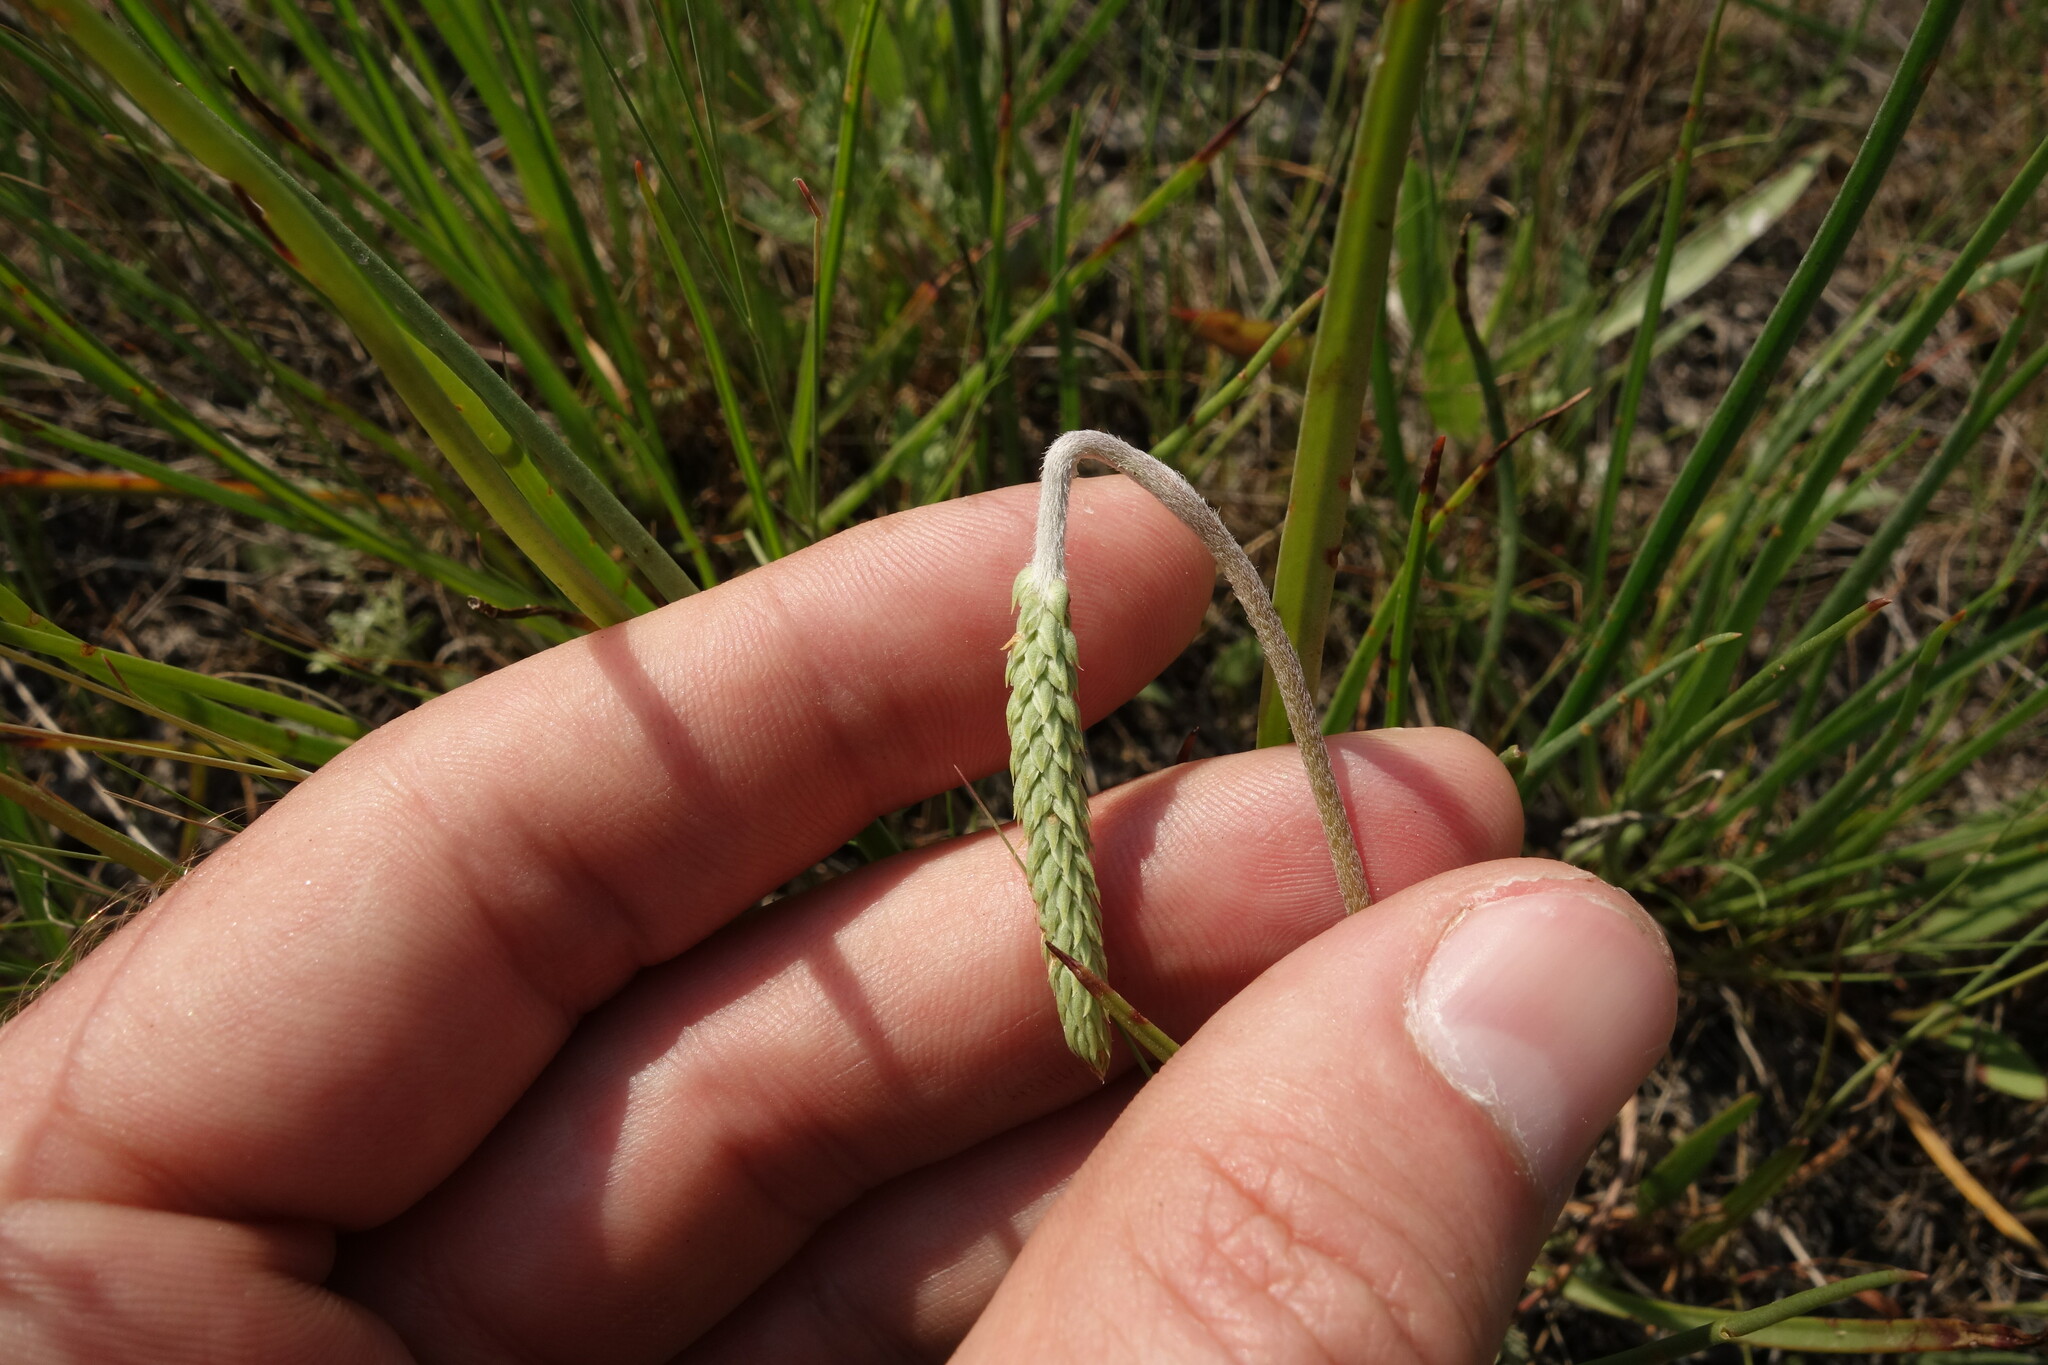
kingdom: Plantae
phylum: Tracheophyta
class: Magnoliopsida
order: Lamiales
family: Plantaginaceae
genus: Plantago
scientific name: Plantago salsa
